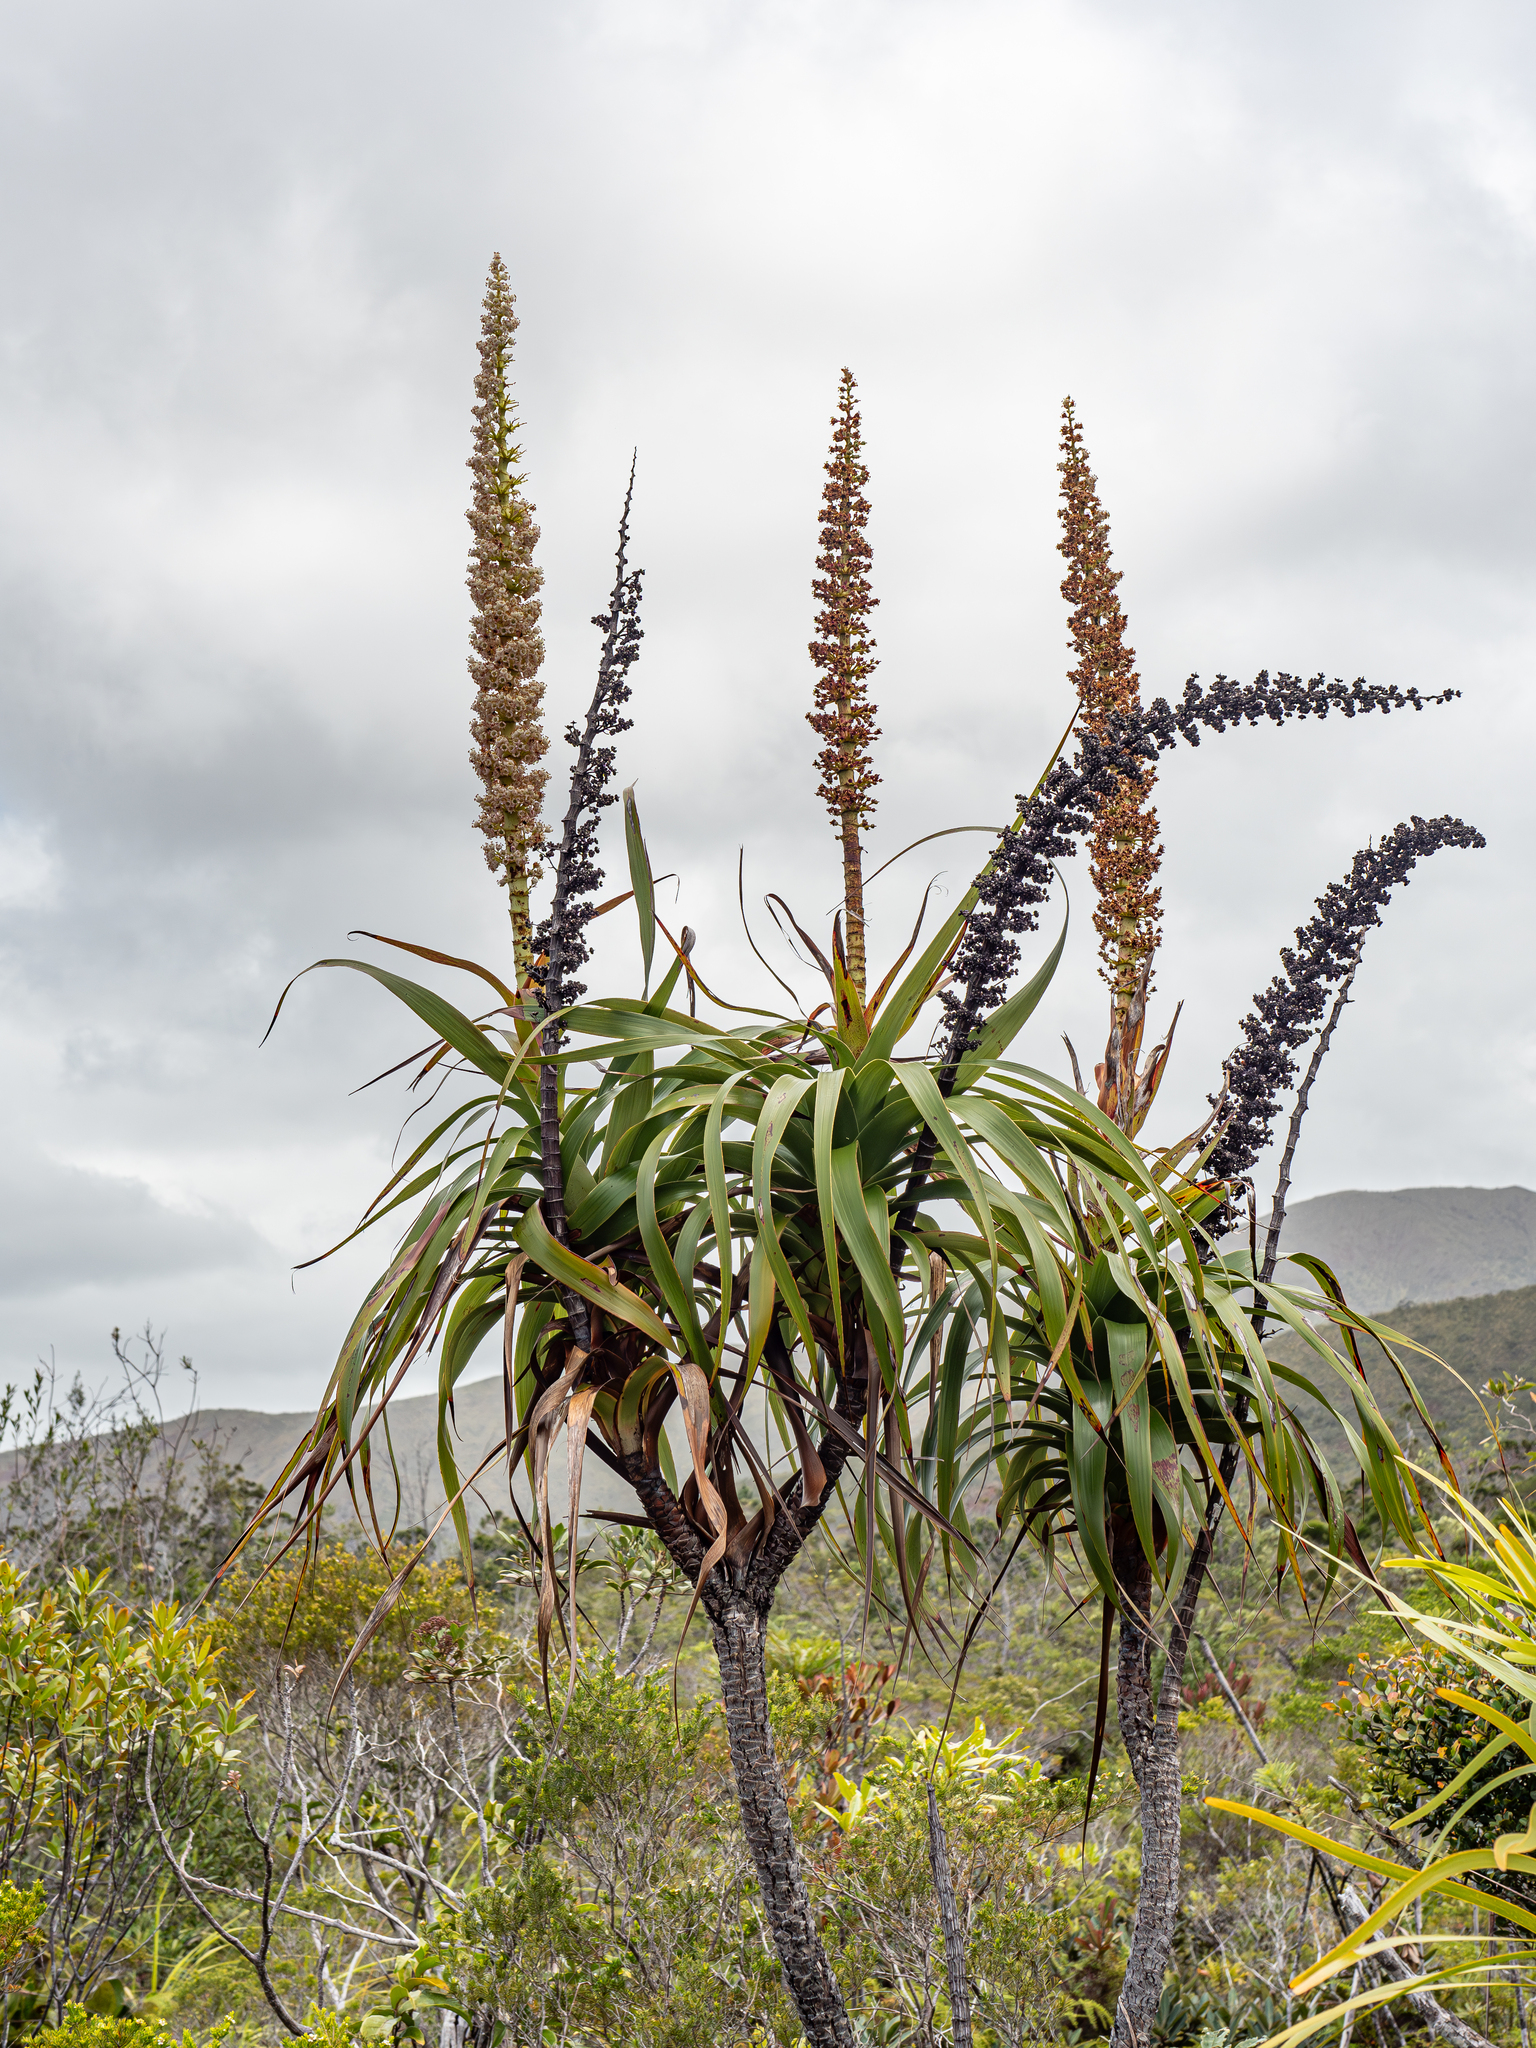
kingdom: Plantae
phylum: Tracheophyta
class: Magnoliopsida
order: Ericales
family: Ericaceae
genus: Dracophyllum
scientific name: Dracophyllum verticillatum
